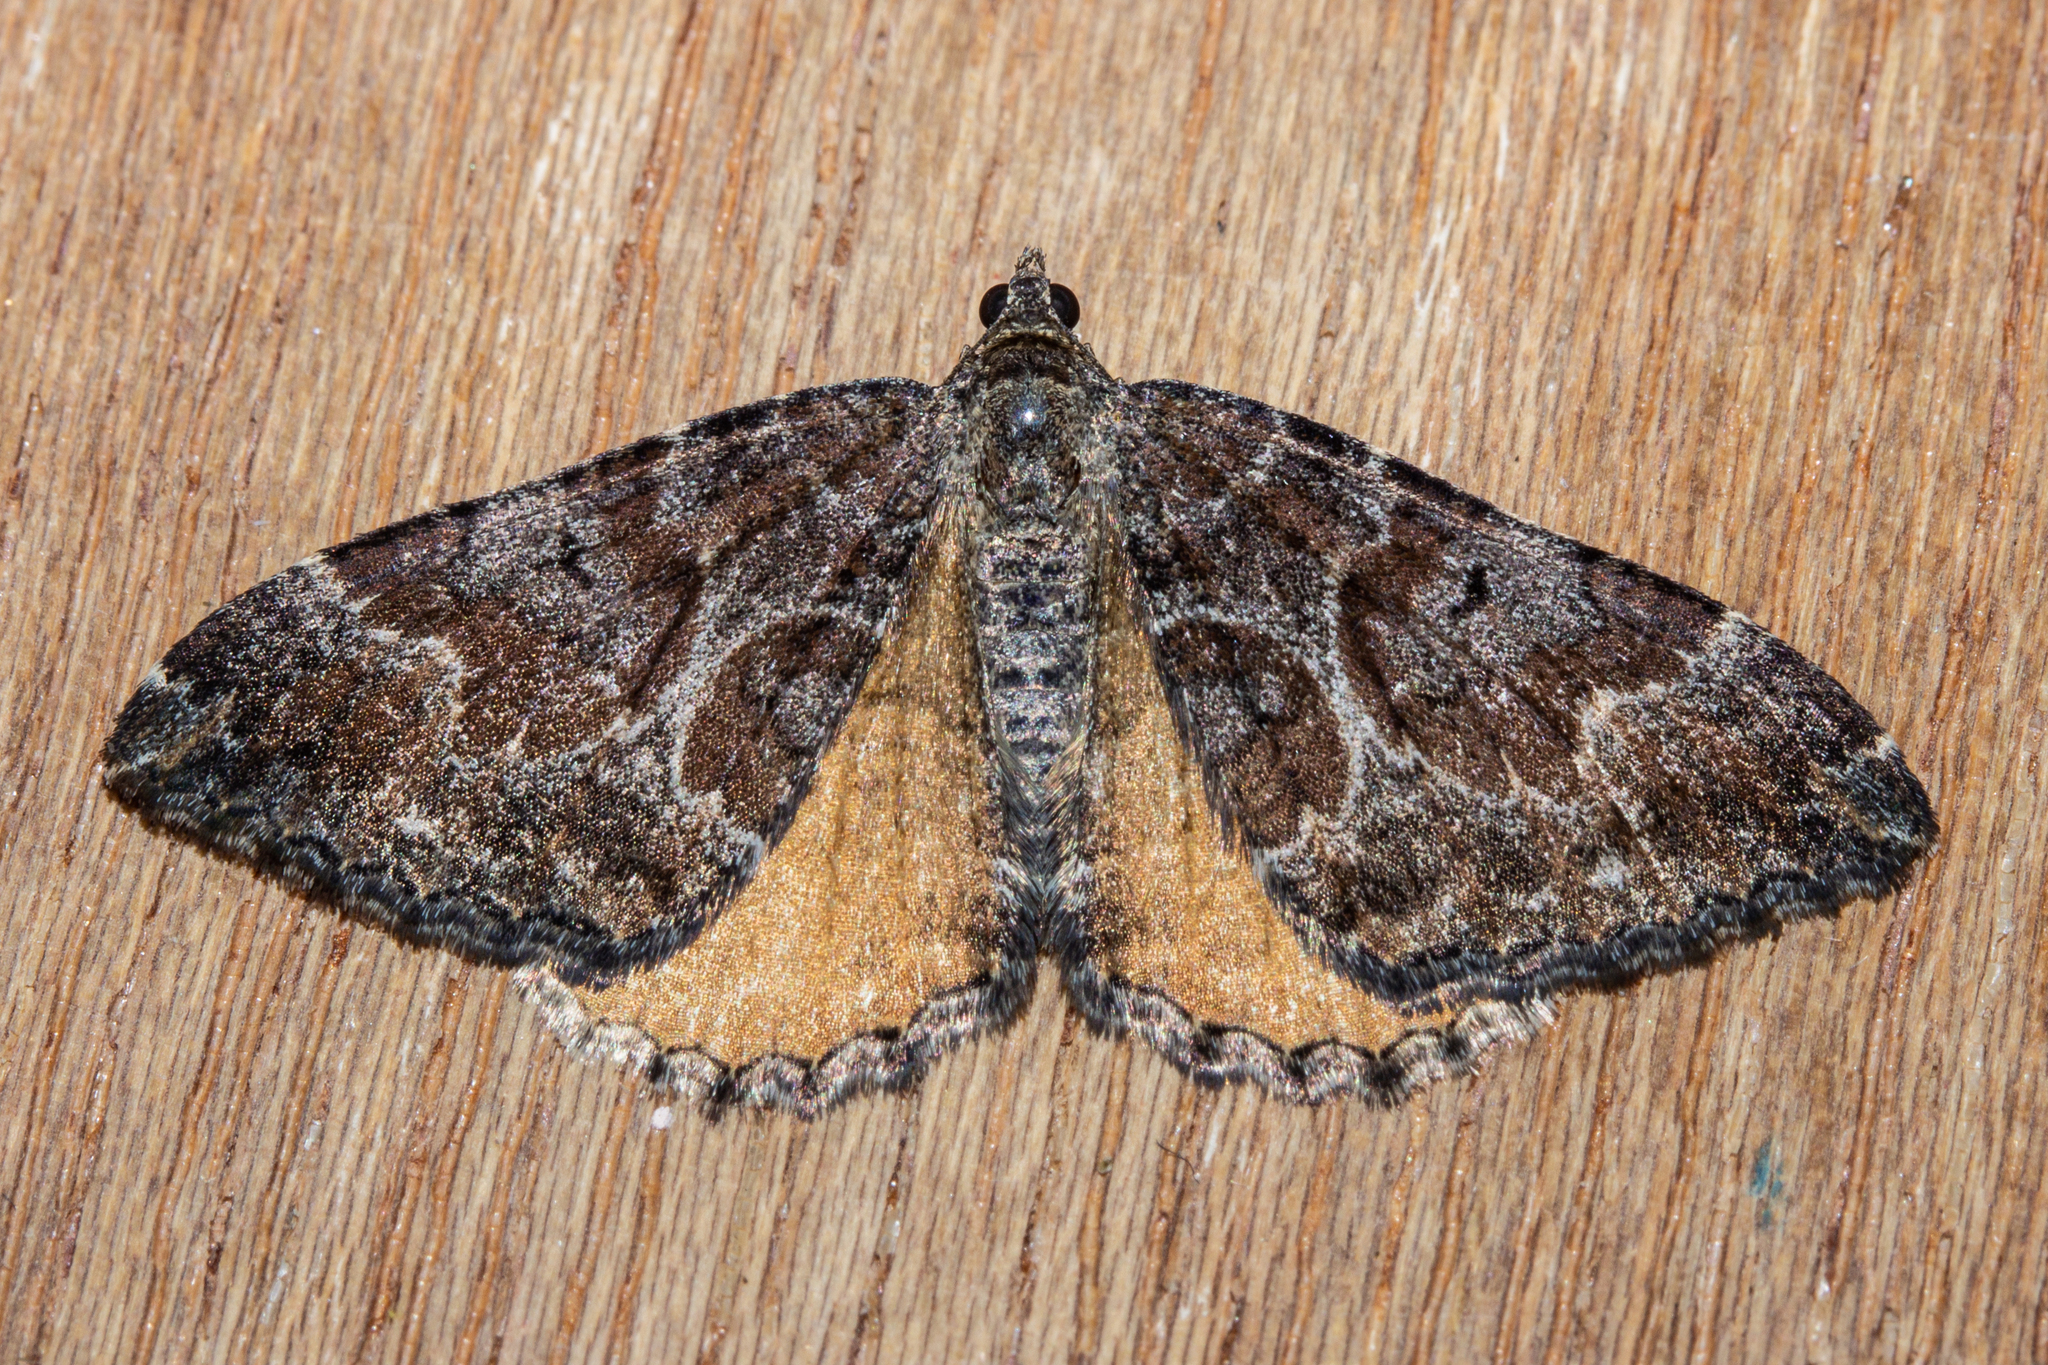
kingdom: Animalia
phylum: Arthropoda
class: Insecta
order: Lepidoptera
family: Geometridae
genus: Hydriomena
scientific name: Hydriomena deltoidata
